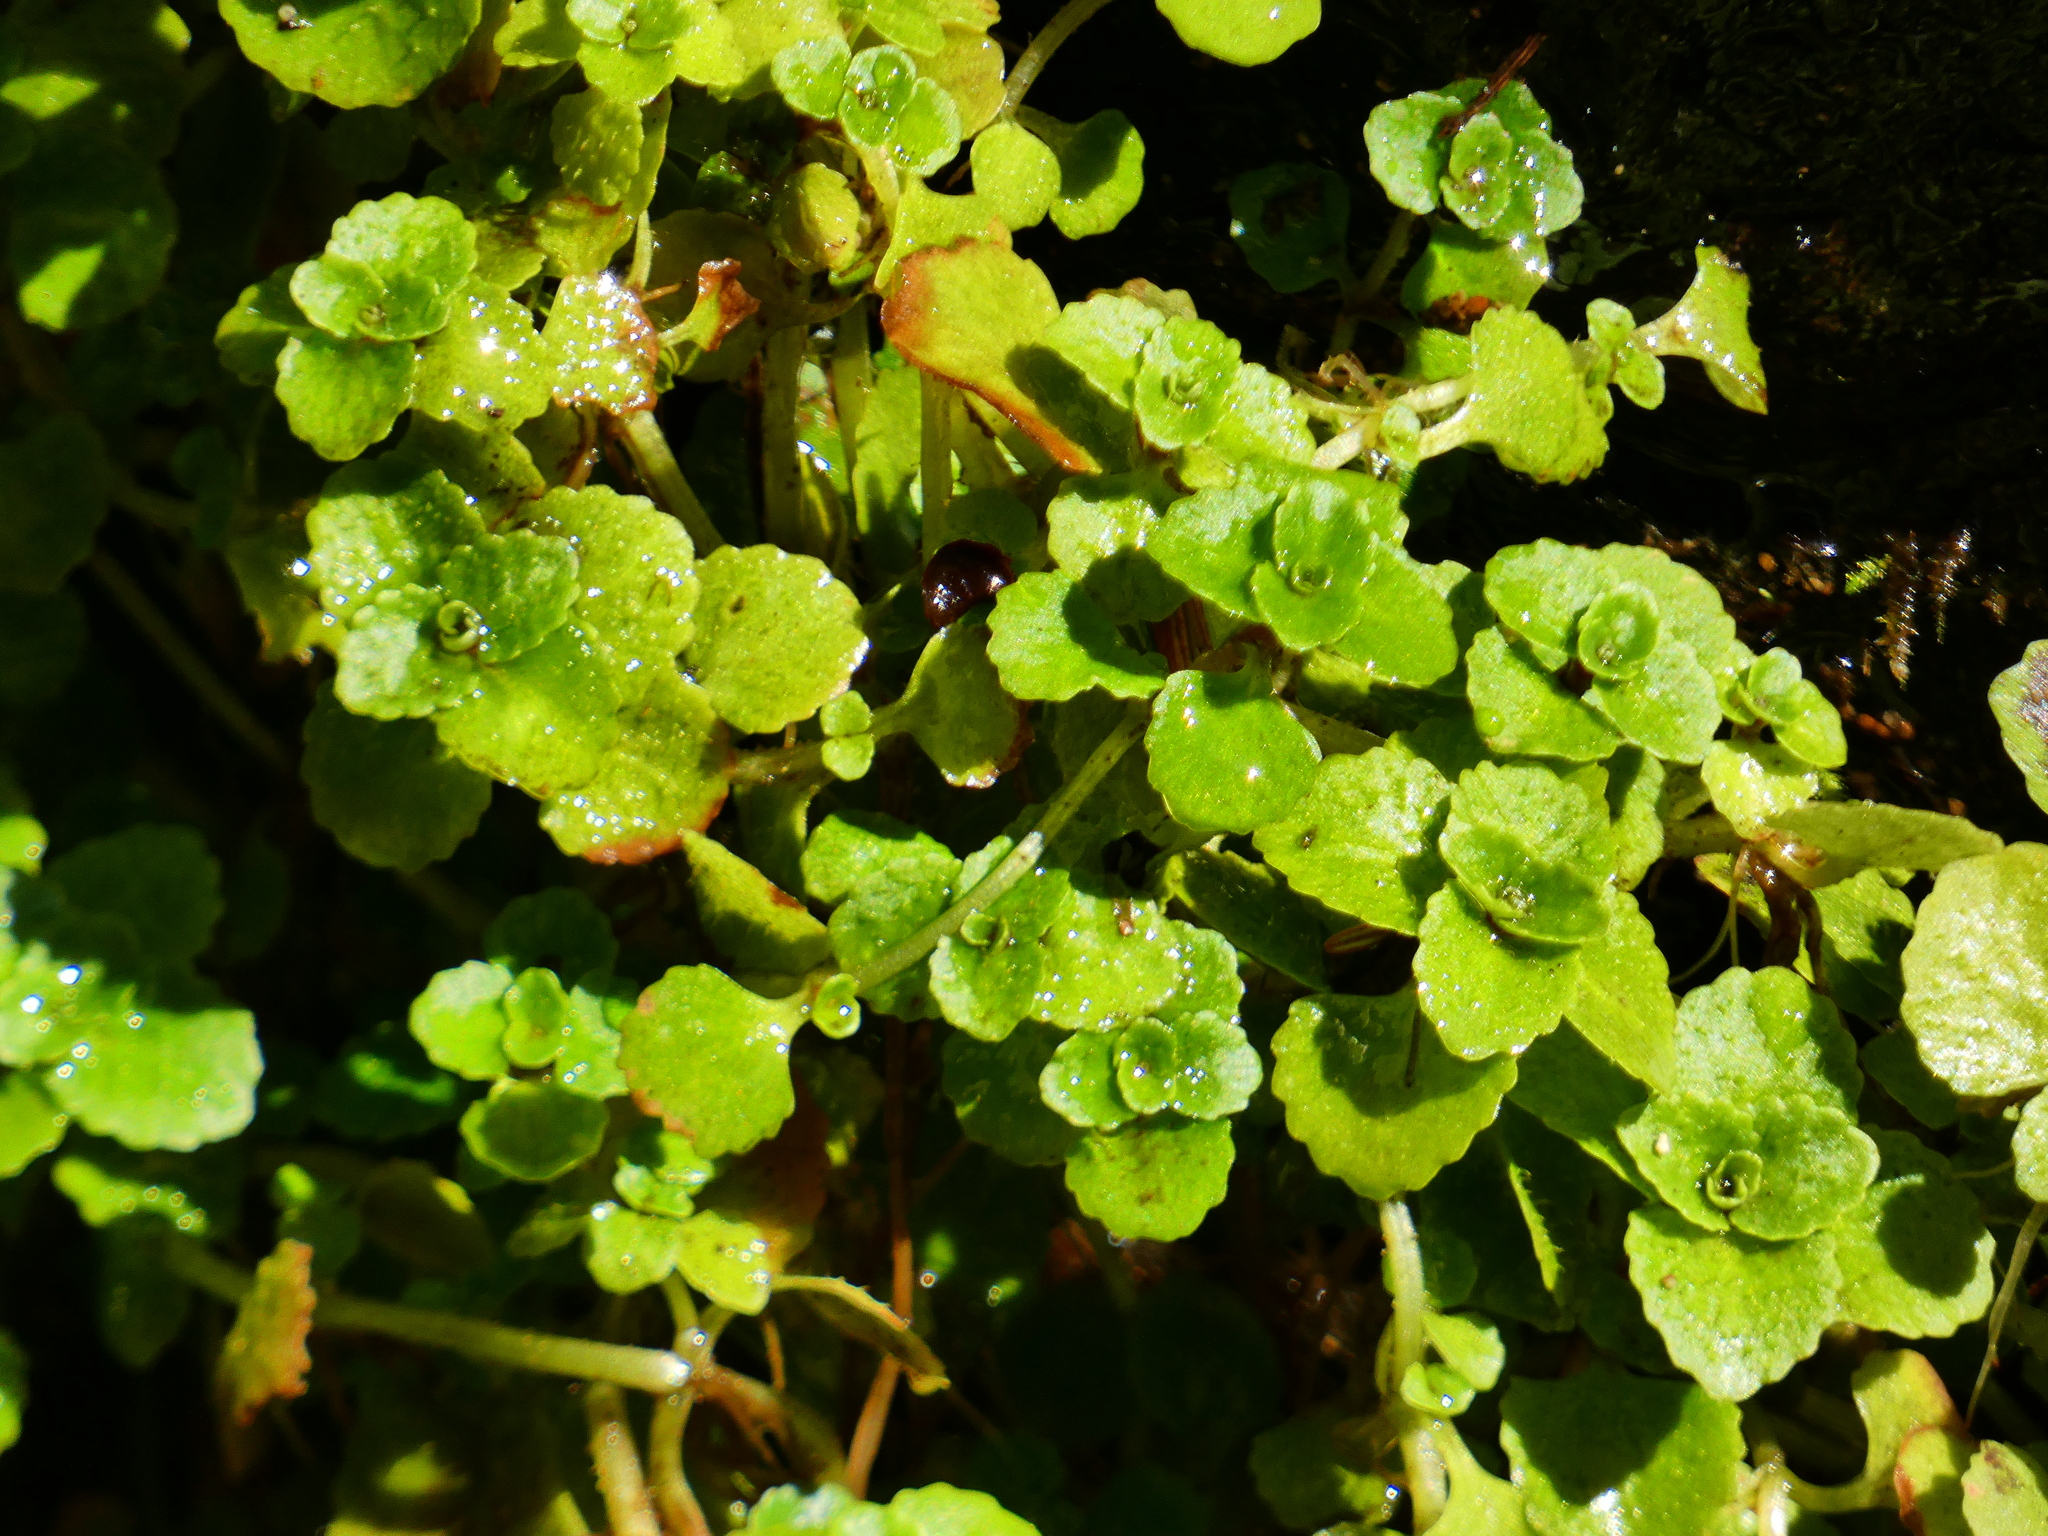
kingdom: Plantae
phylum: Tracheophyta
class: Magnoliopsida
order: Saxifragales
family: Saxifragaceae
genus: Chrysosplenium
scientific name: Chrysosplenium oppositifolium
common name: Opposite-leaved golden-saxifrage
